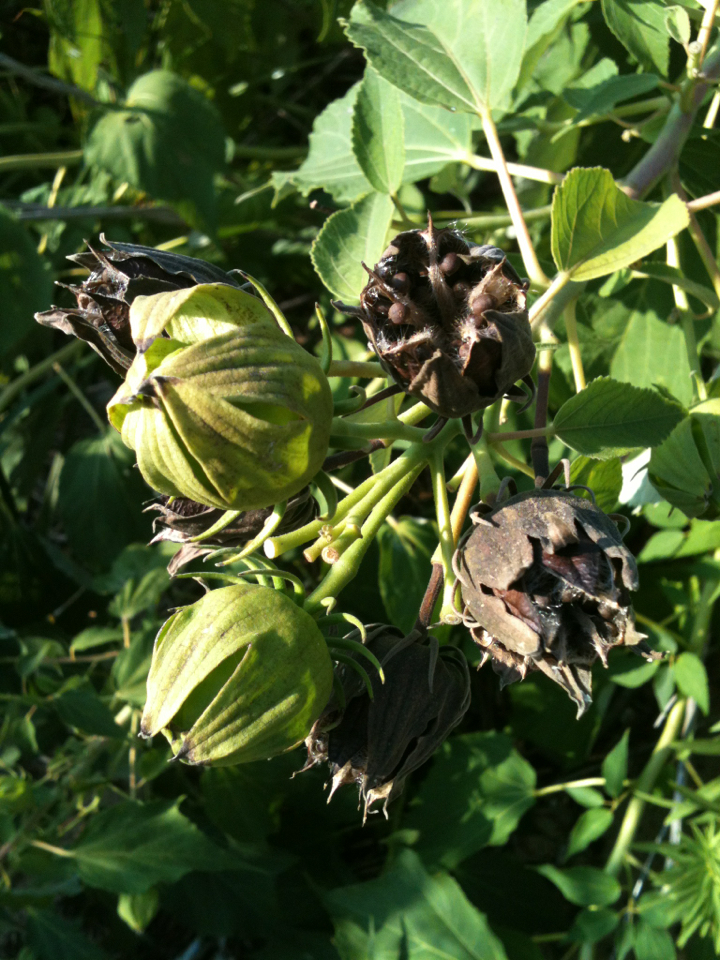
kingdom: Plantae
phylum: Tracheophyta
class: Magnoliopsida
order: Malvales
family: Malvaceae
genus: Hibiscus
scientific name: Hibiscus moscheutos
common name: Common rose-mallow
